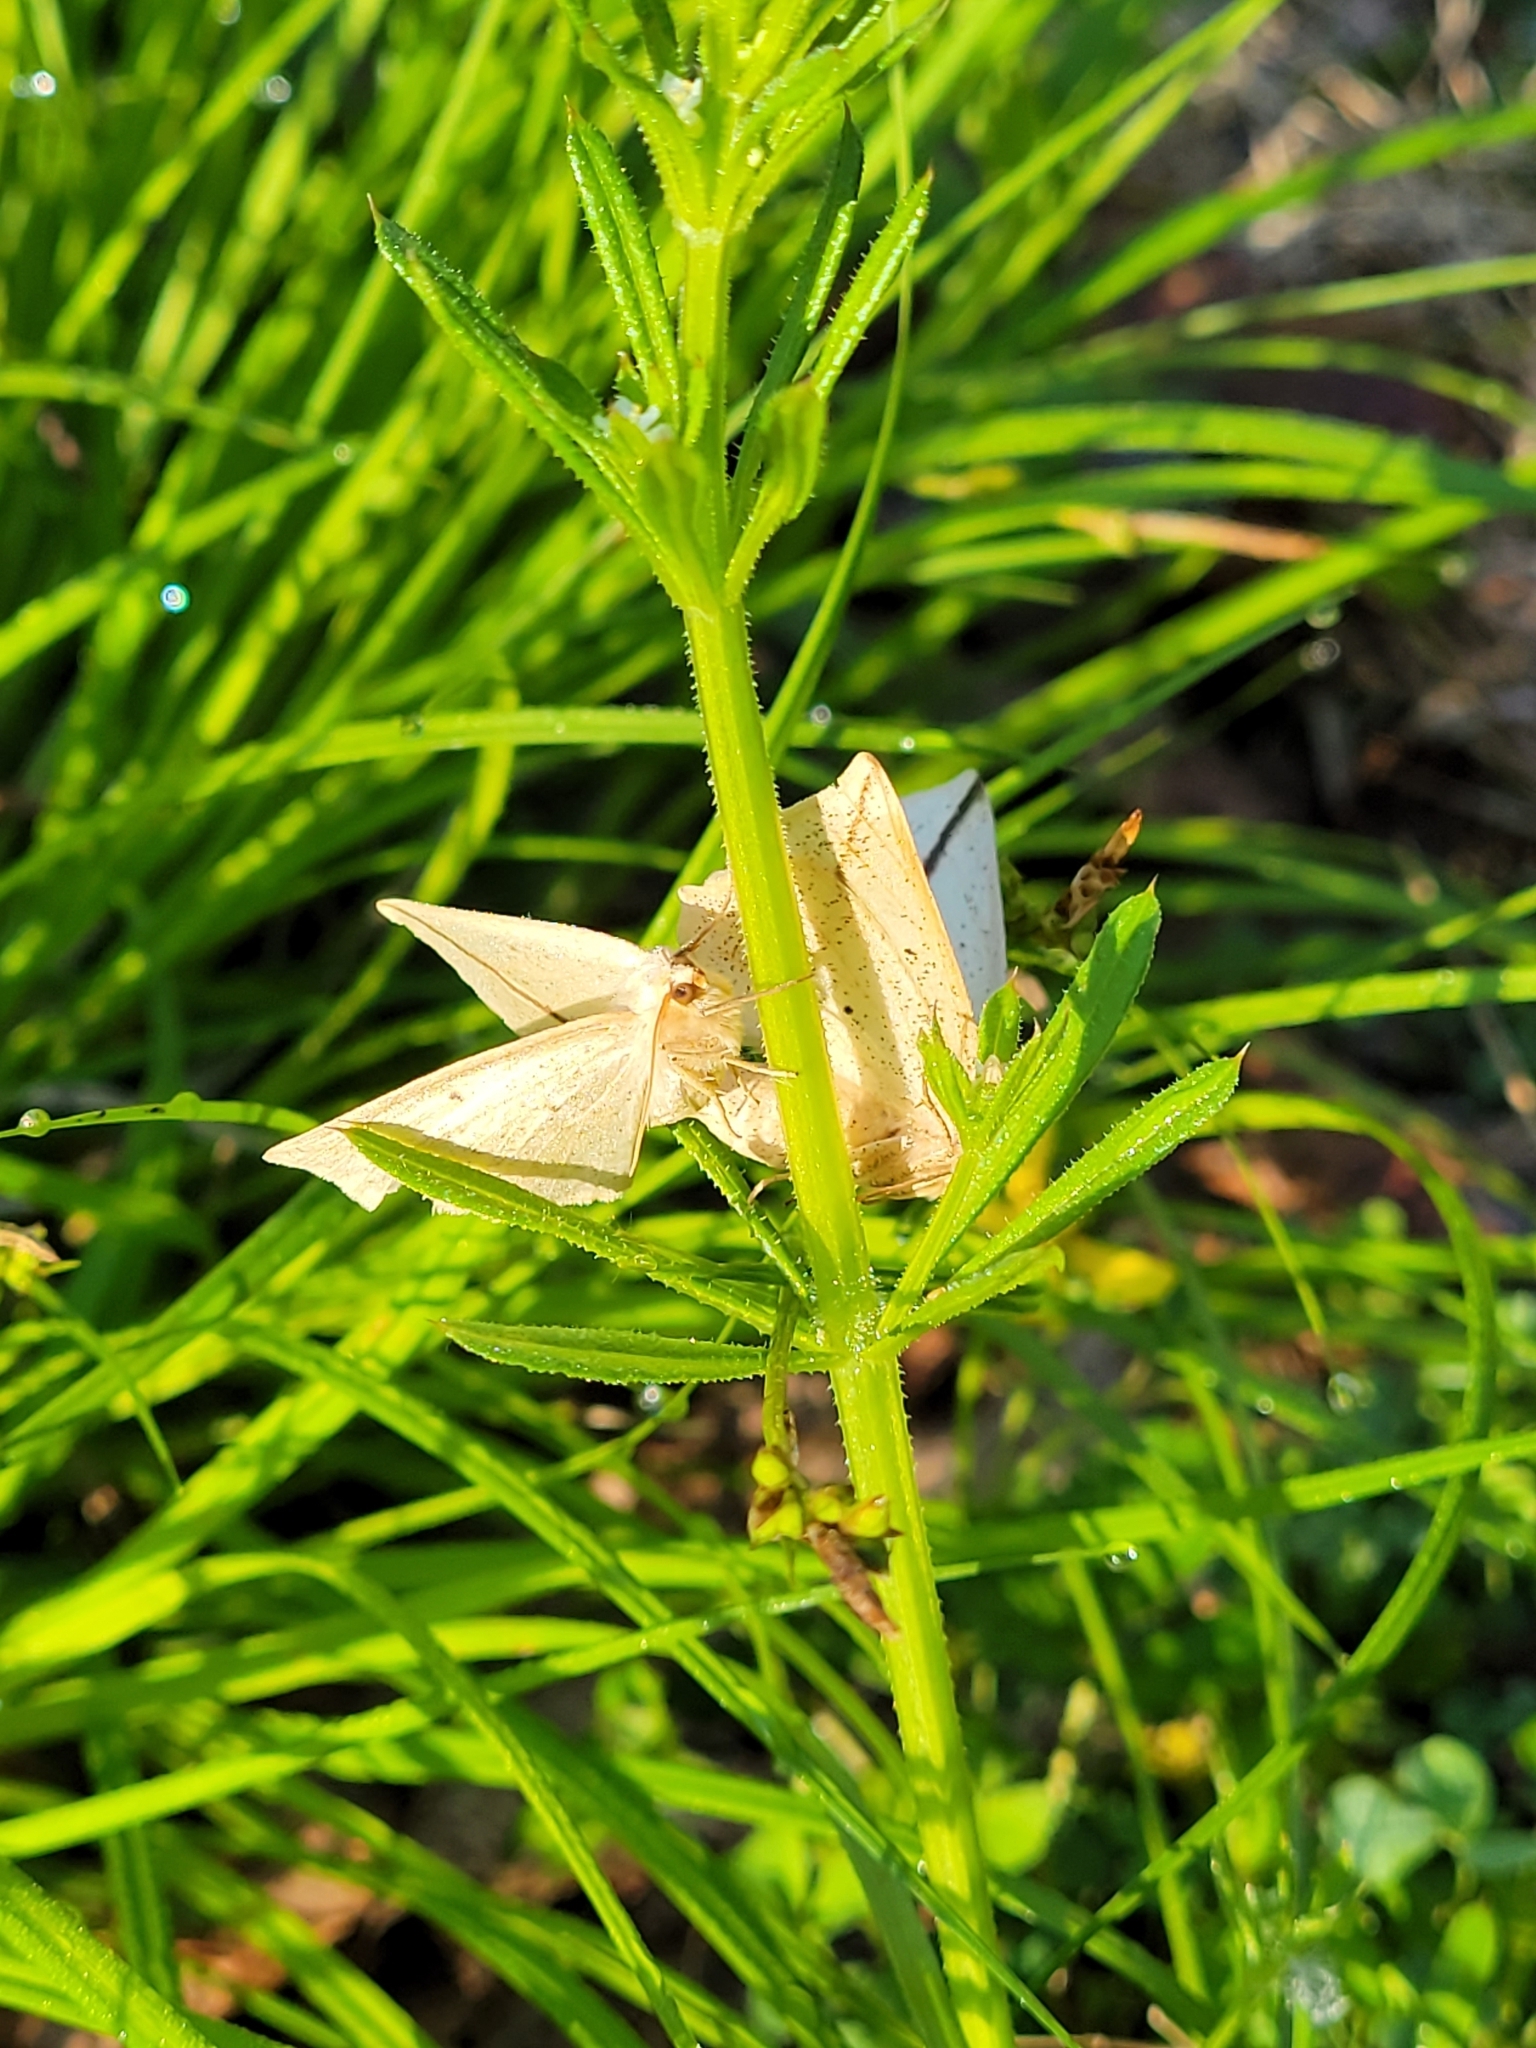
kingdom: Animalia
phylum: Arthropoda
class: Insecta
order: Lepidoptera
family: Geometridae
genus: Tetracis
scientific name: Tetracis crocallata
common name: Yellow slant-line
